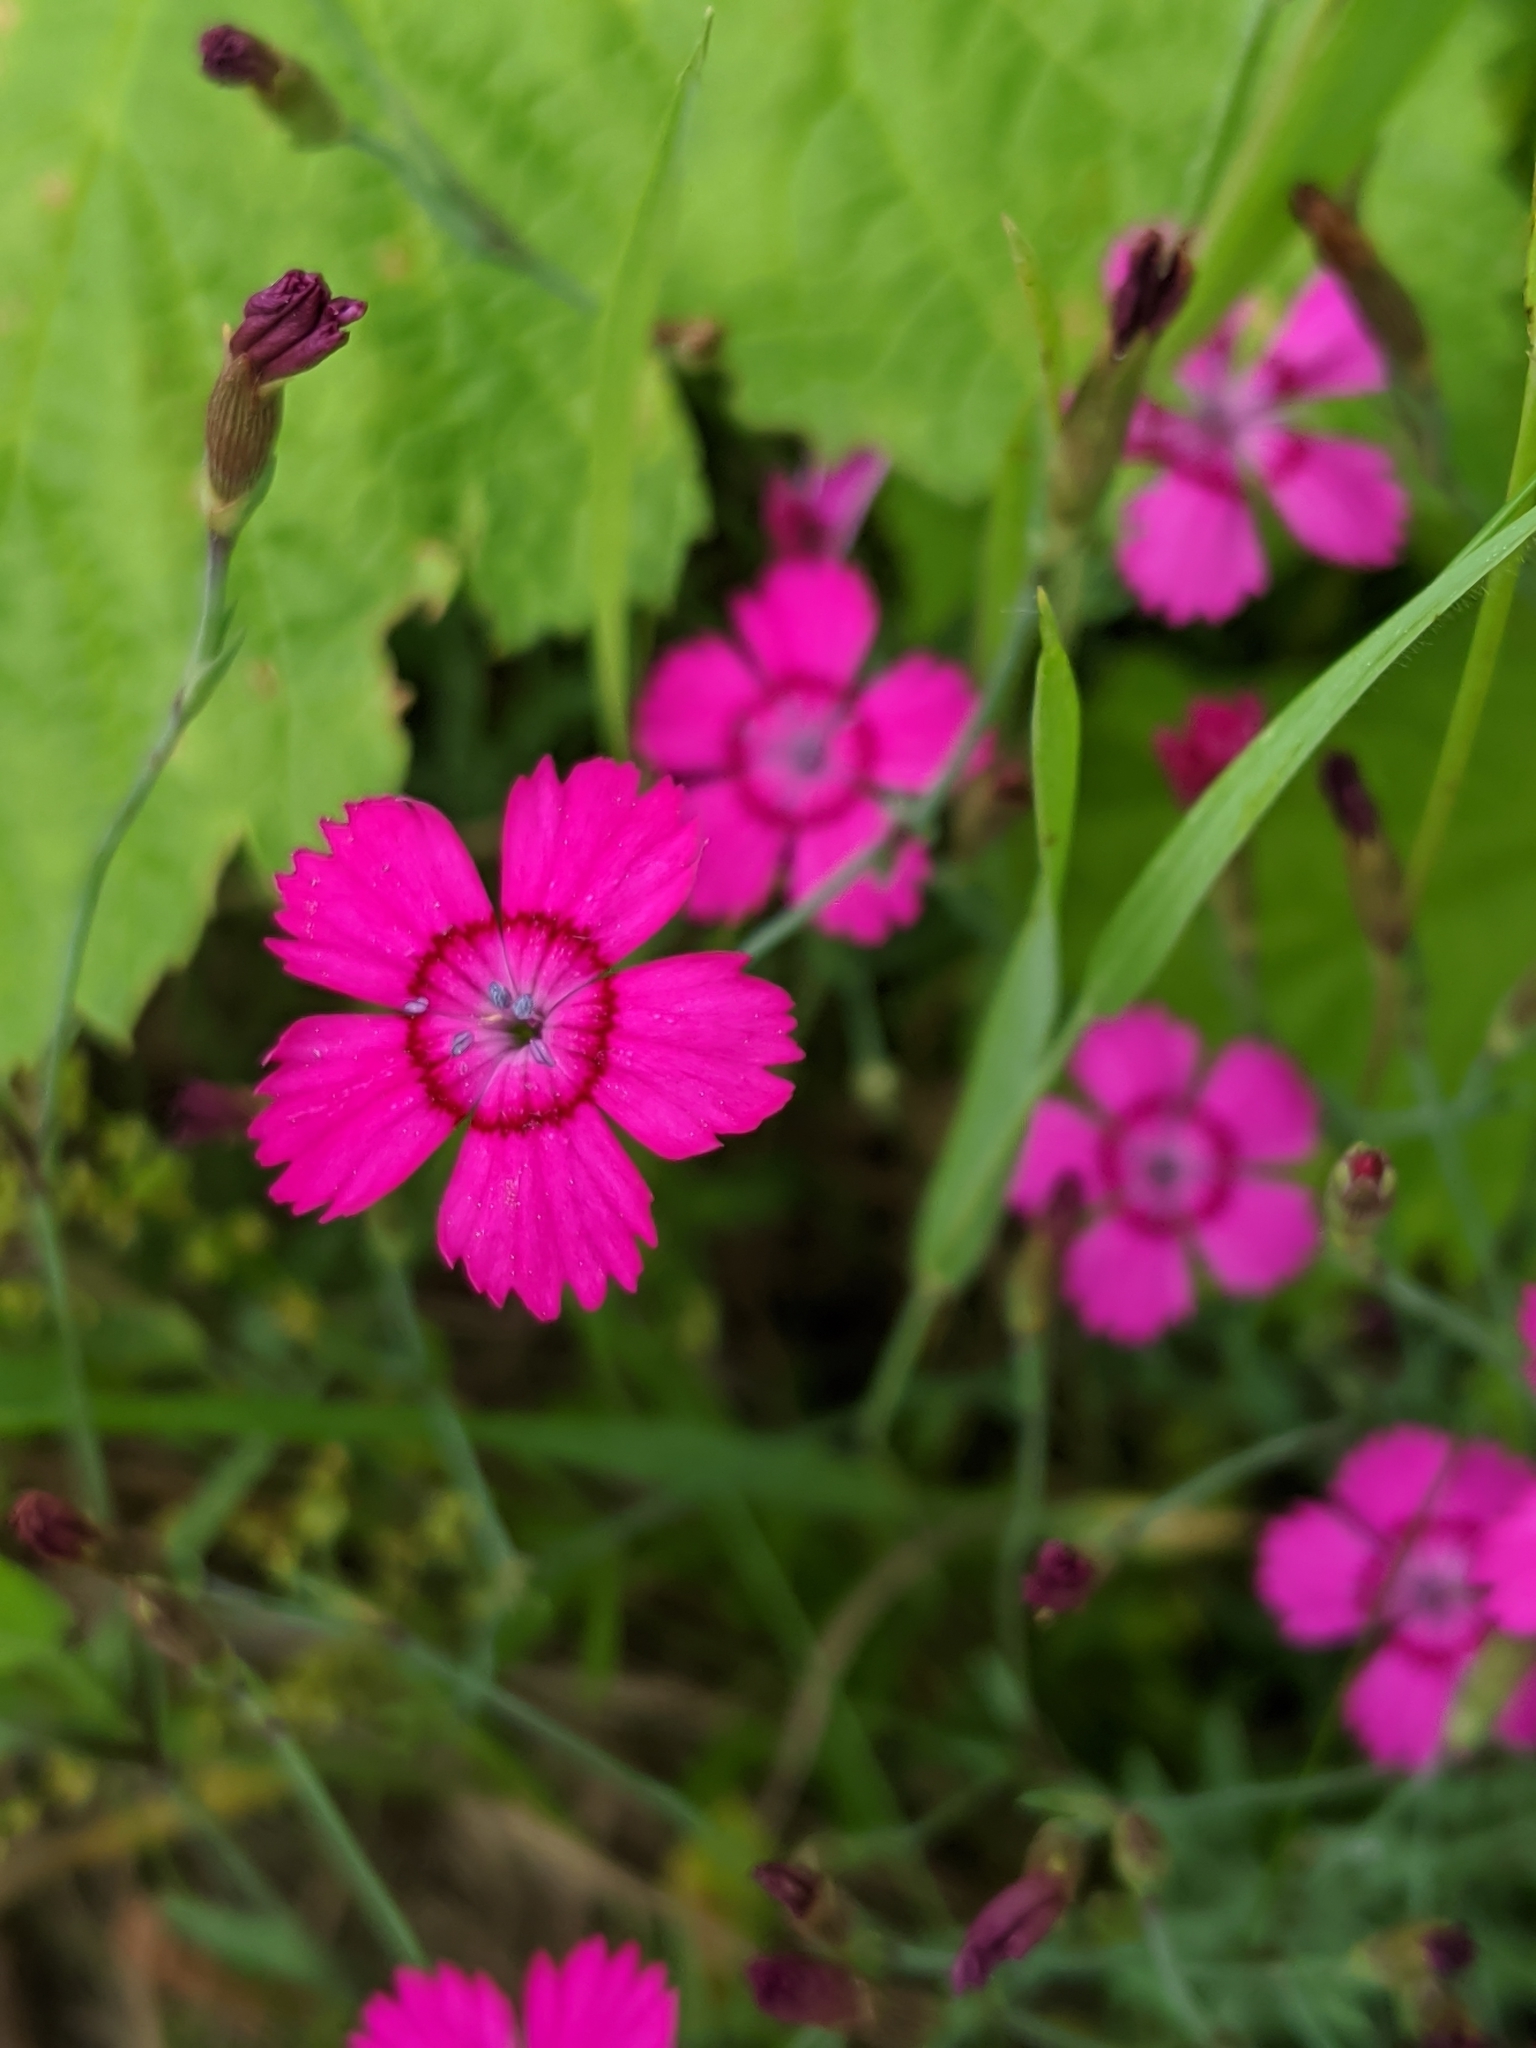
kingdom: Plantae
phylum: Tracheophyta
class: Magnoliopsida
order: Caryophyllales
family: Caryophyllaceae
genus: Dianthus
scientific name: Dianthus deltoides
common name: Maiden pink
